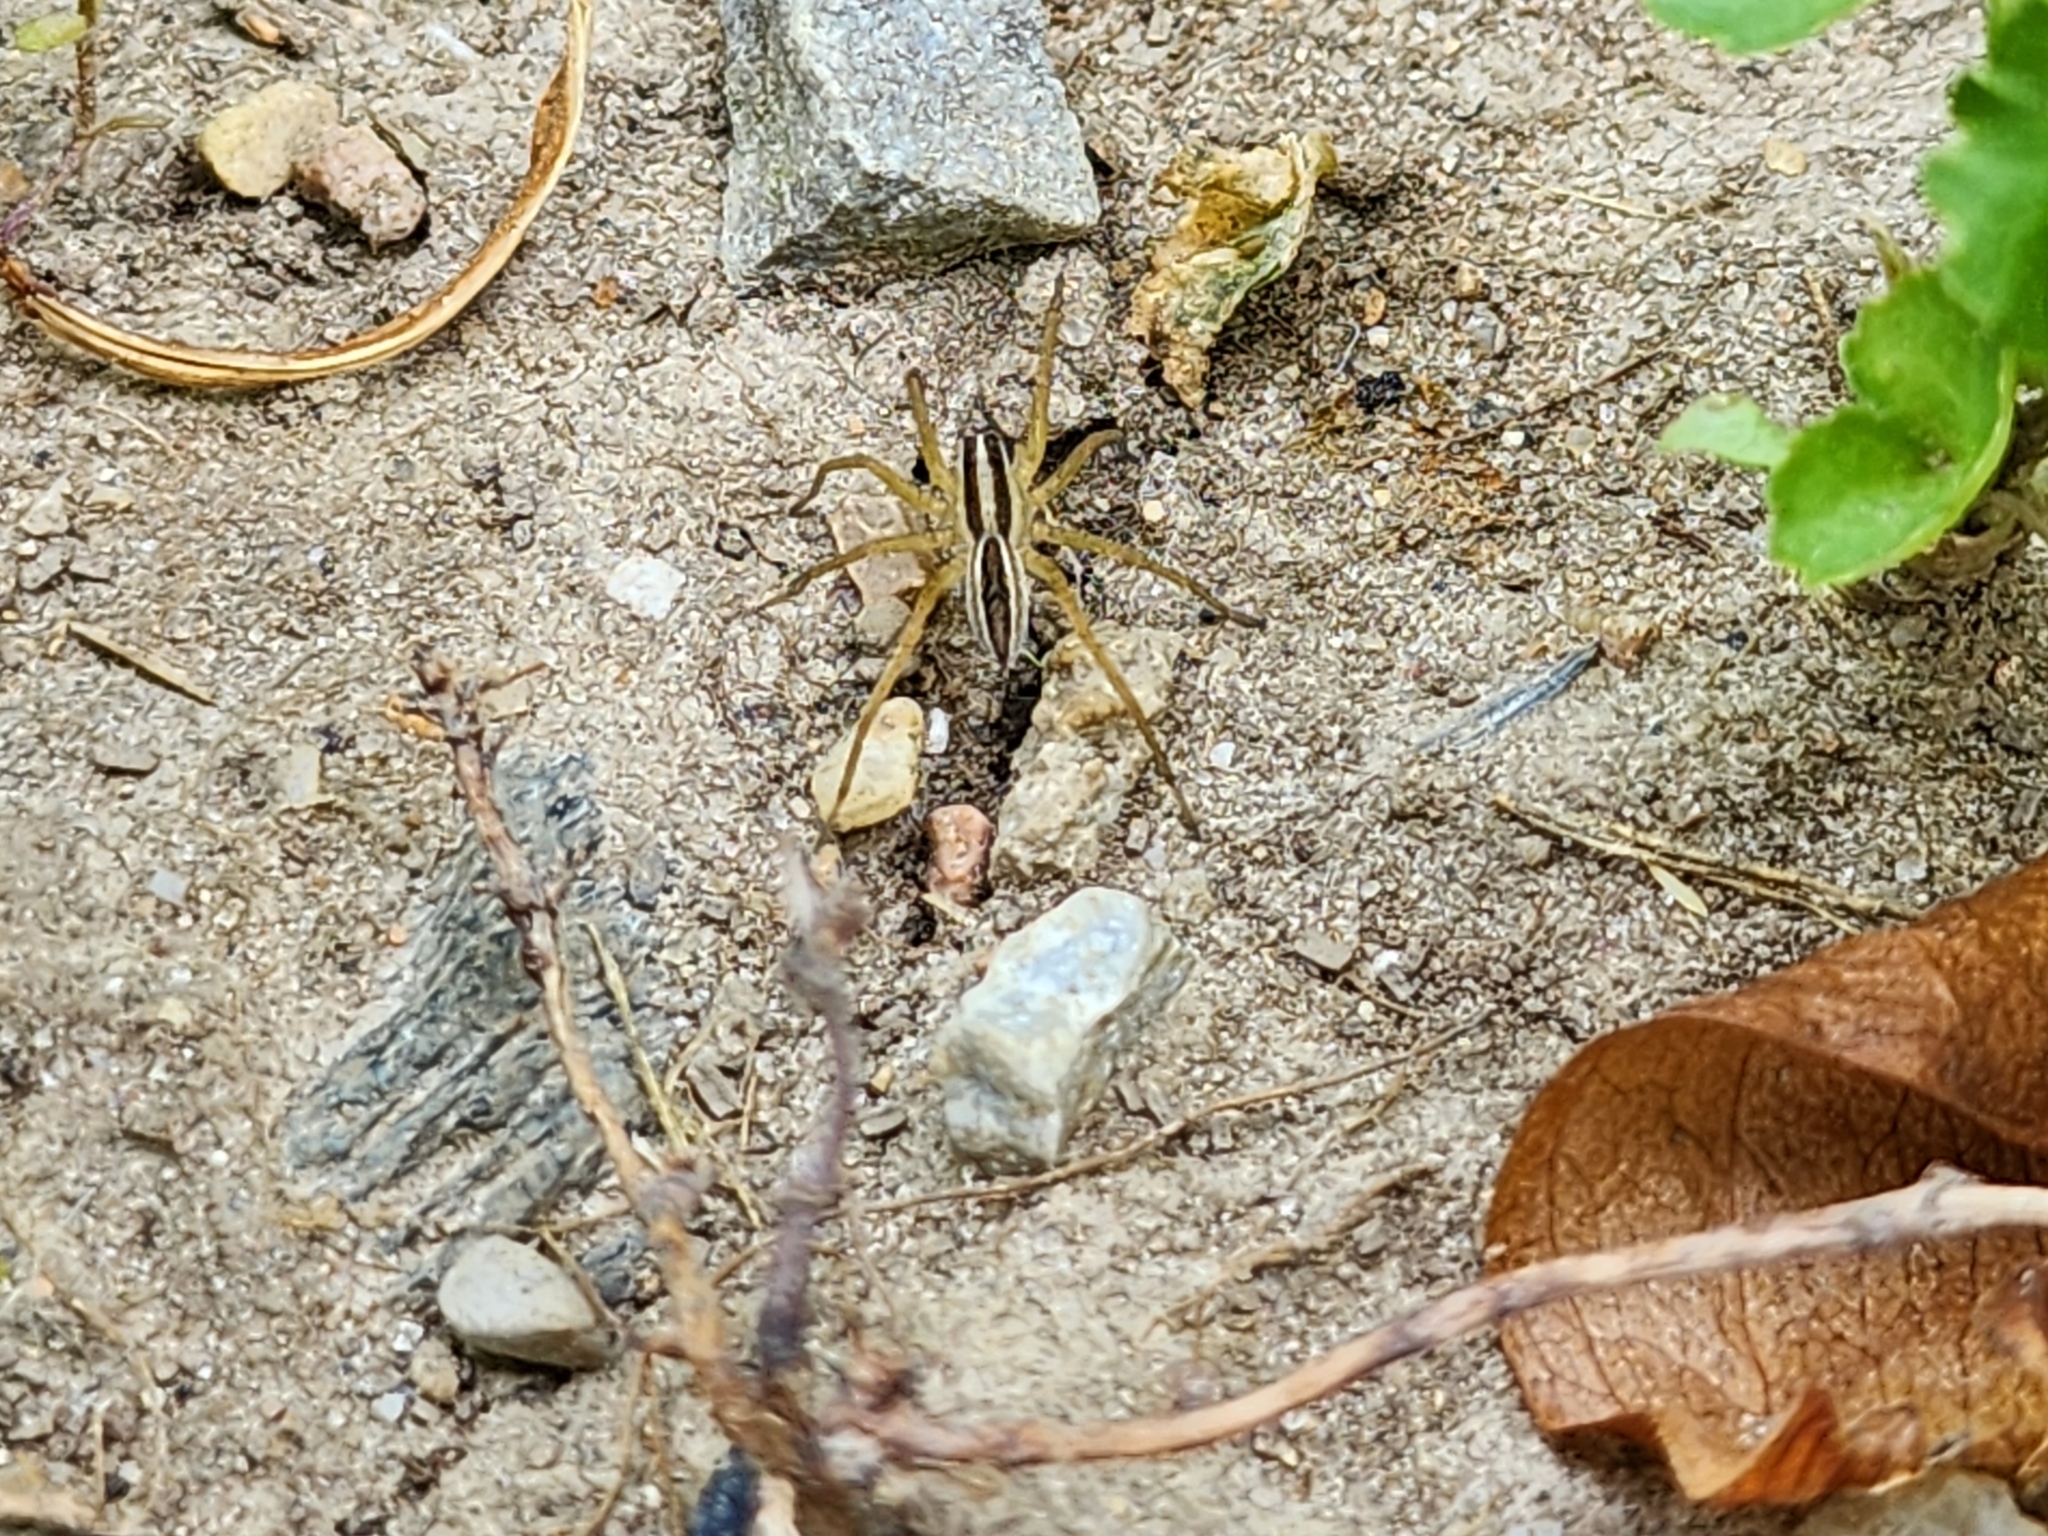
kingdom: Animalia
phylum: Arthropoda
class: Arachnida
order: Araneae
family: Lycosidae
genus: Rabidosa
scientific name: Rabidosa rabida
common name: Rabid wolf spider
